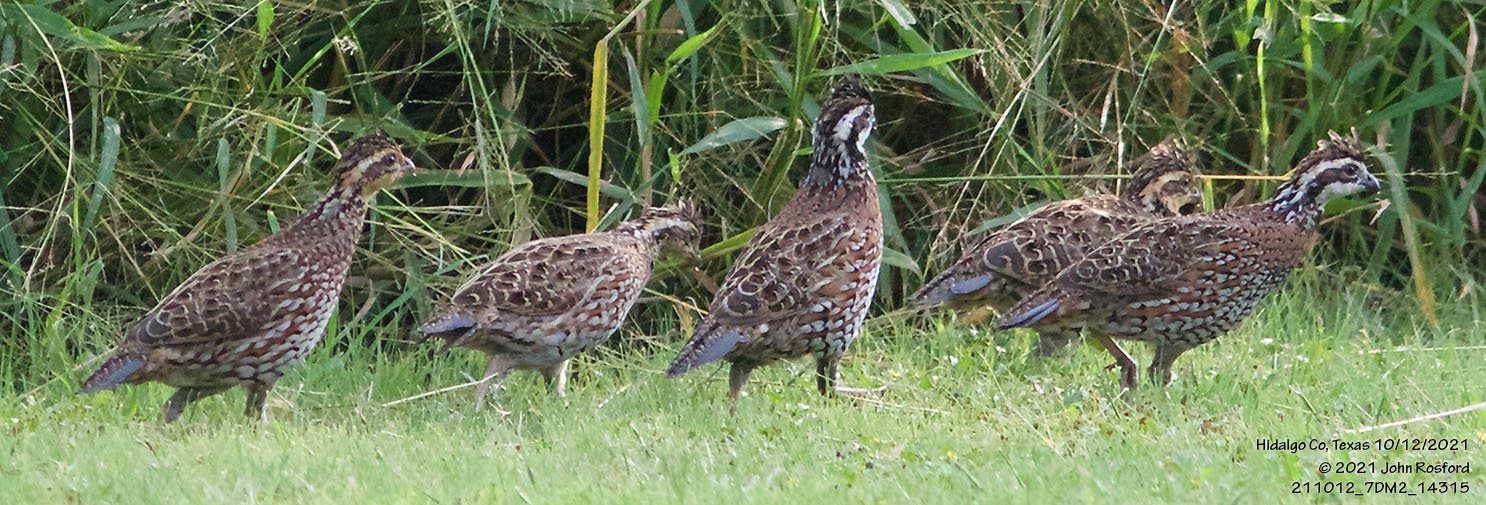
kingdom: Animalia
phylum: Chordata
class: Aves
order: Galliformes
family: Odontophoridae
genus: Colinus
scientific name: Colinus virginianus
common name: Northern bobwhite
